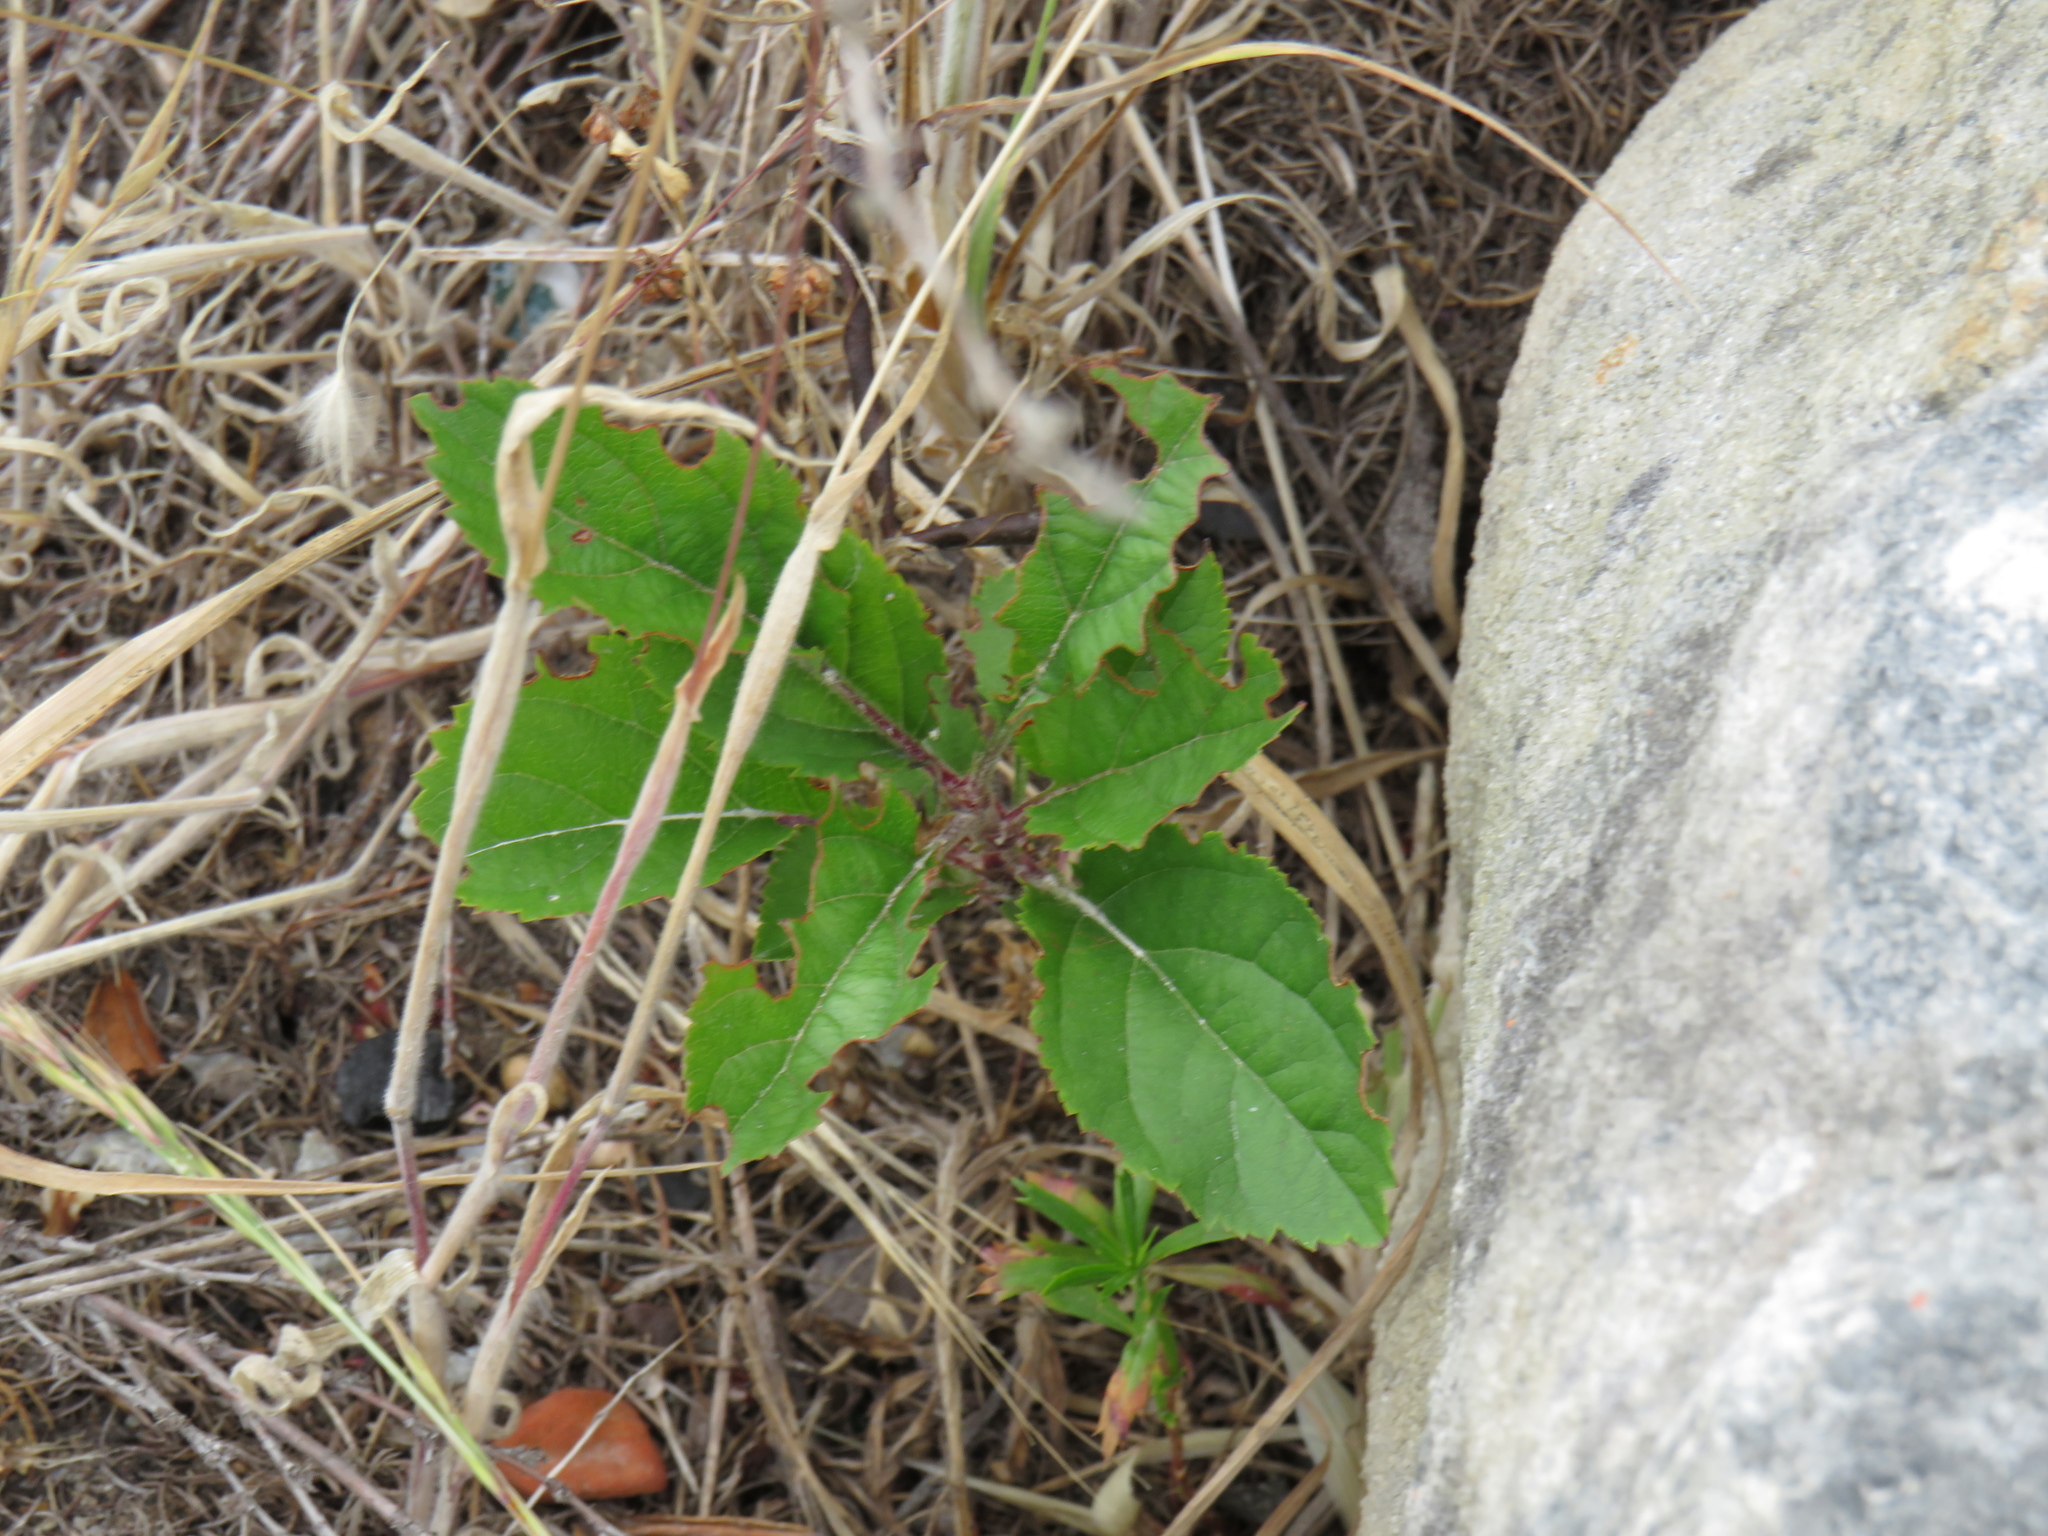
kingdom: Plantae
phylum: Tracheophyta
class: Magnoliopsida
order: Rosales
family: Rosaceae
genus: Malus
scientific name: Malus domestica
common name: Apple
